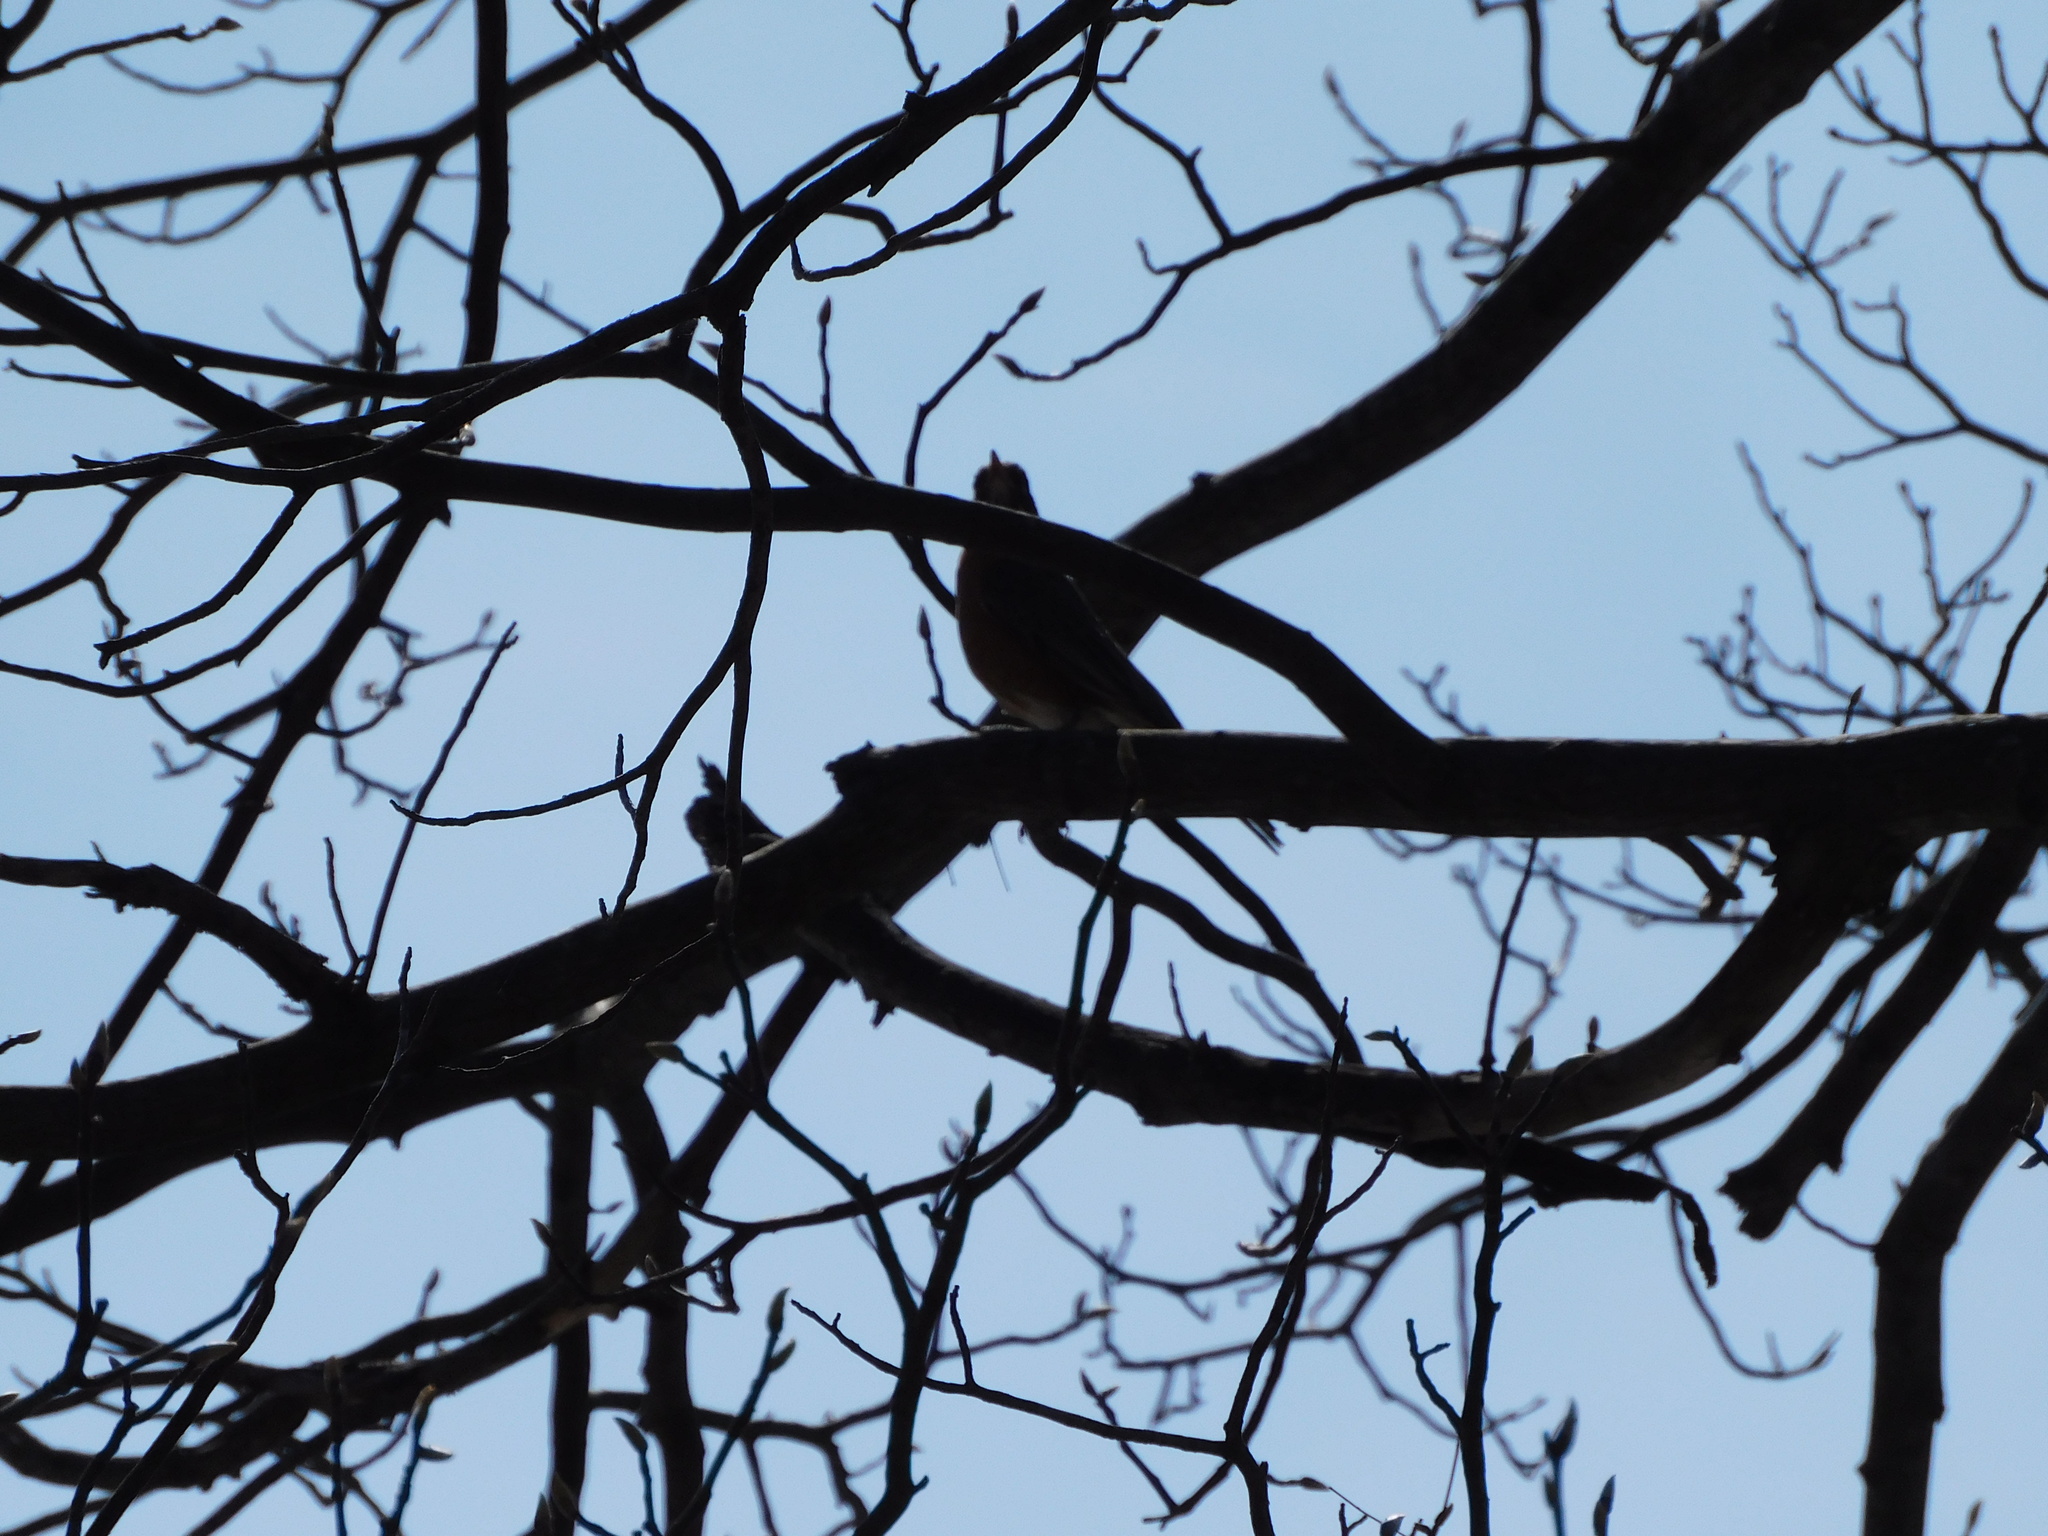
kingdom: Animalia
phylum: Chordata
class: Aves
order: Passeriformes
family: Turdidae
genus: Turdus
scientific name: Turdus migratorius
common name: American robin
